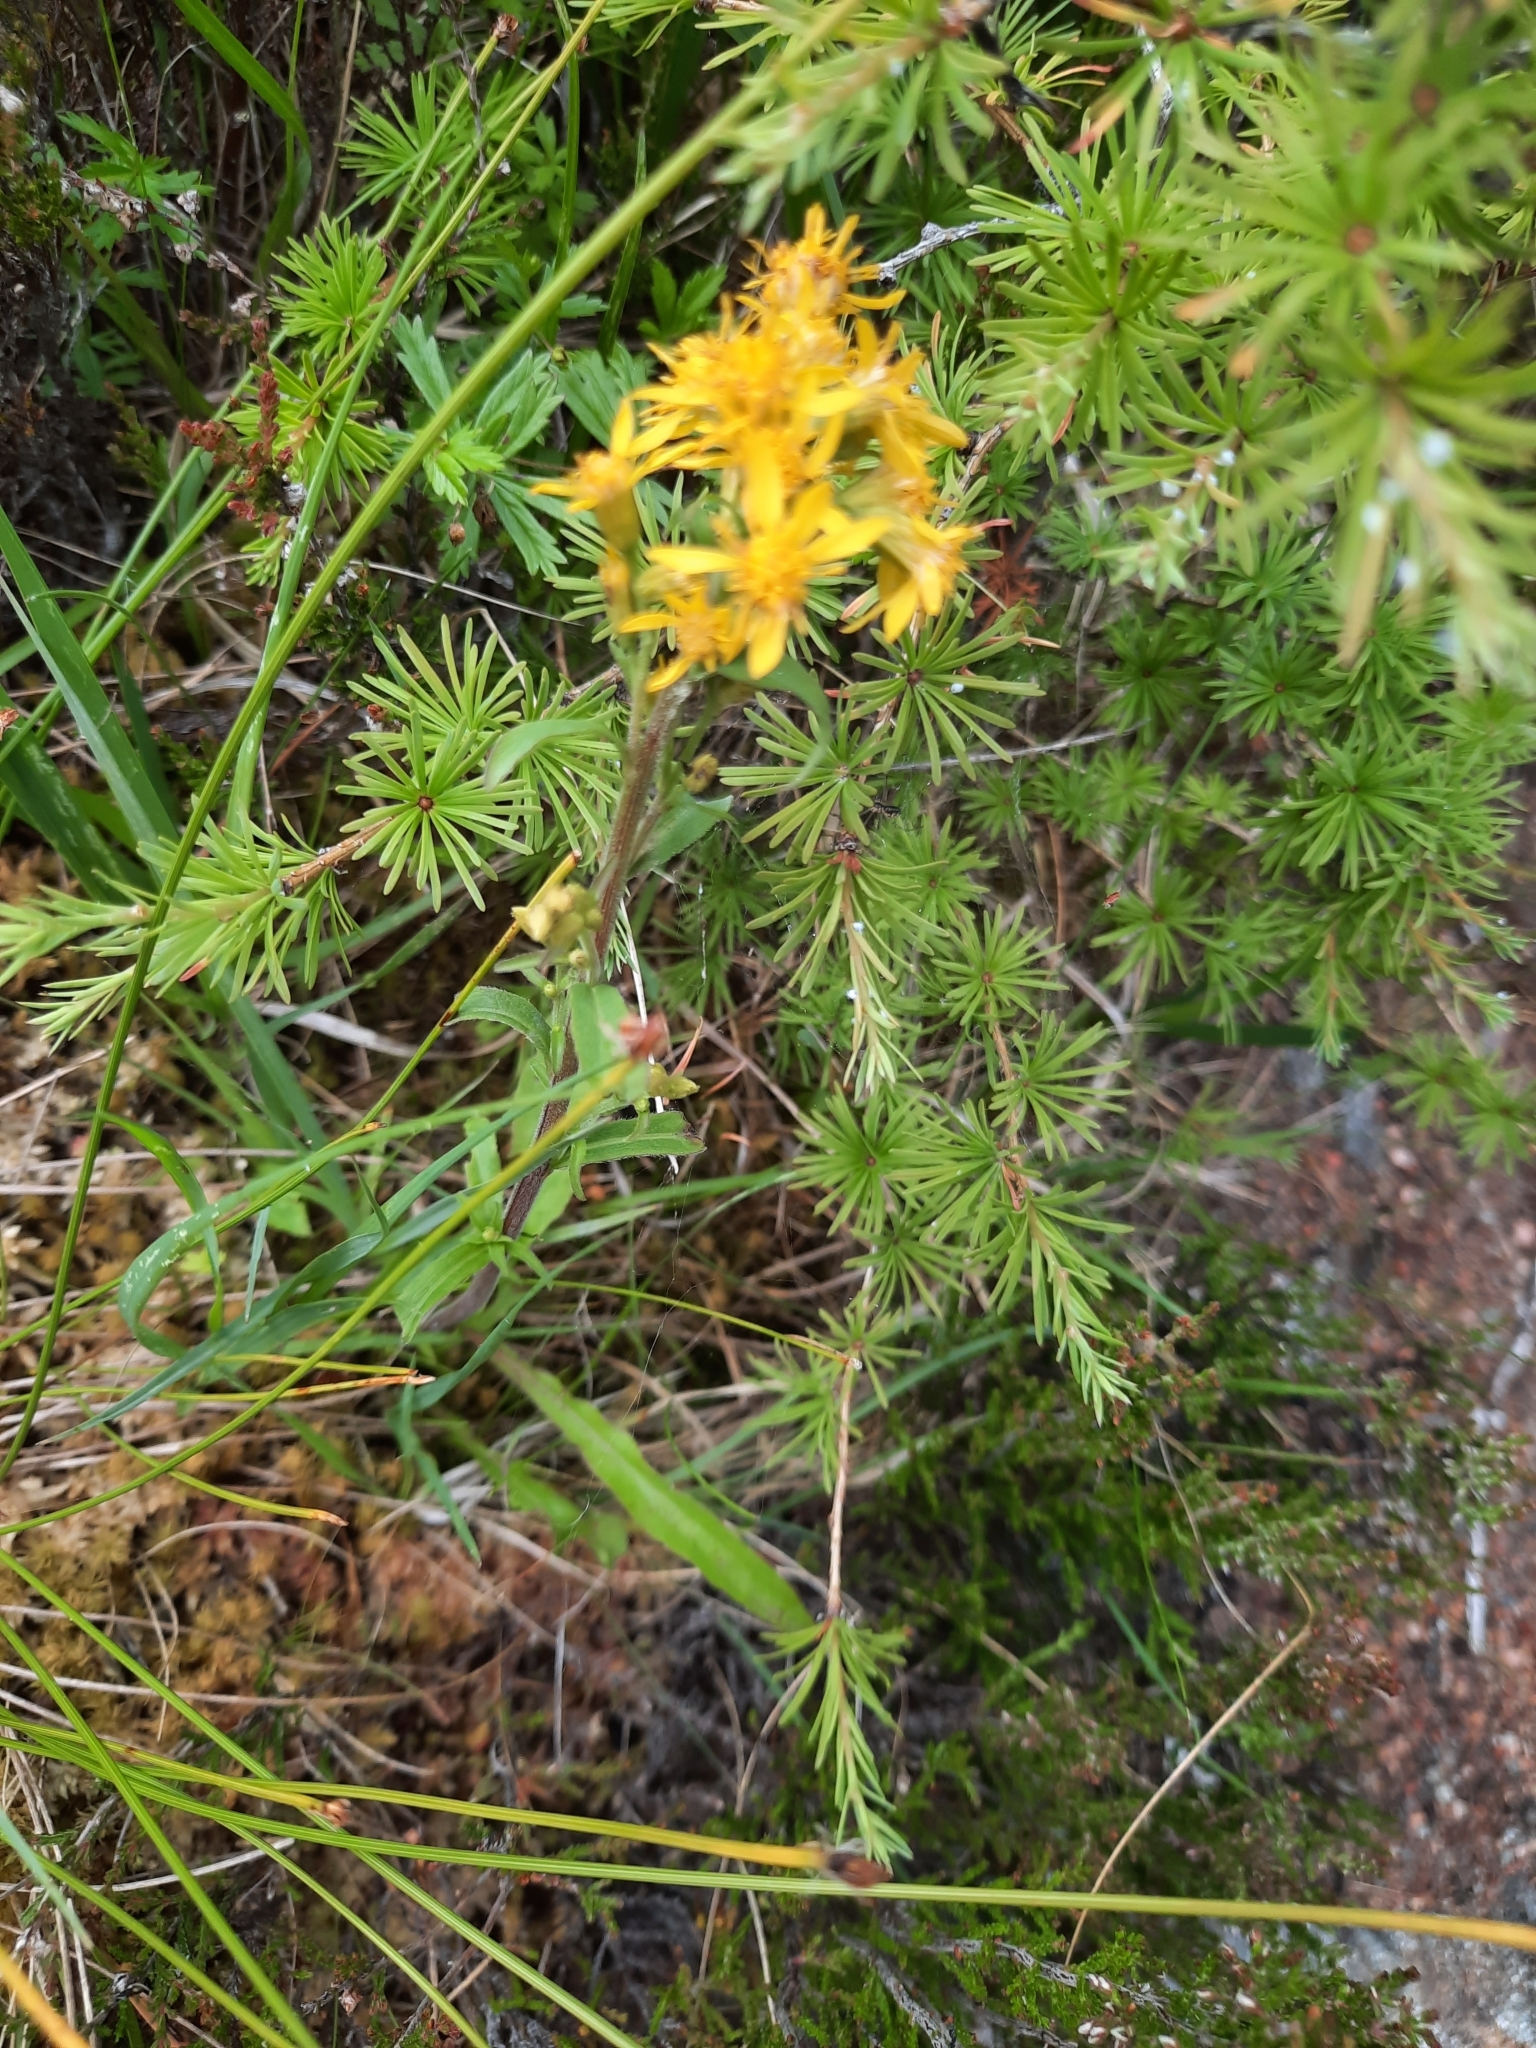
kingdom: Plantae
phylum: Tracheophyta
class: Magnoliopsida
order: Asterales
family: Asteraceae
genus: Solidago
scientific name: Solidago virgaurea
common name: Goldenrod
